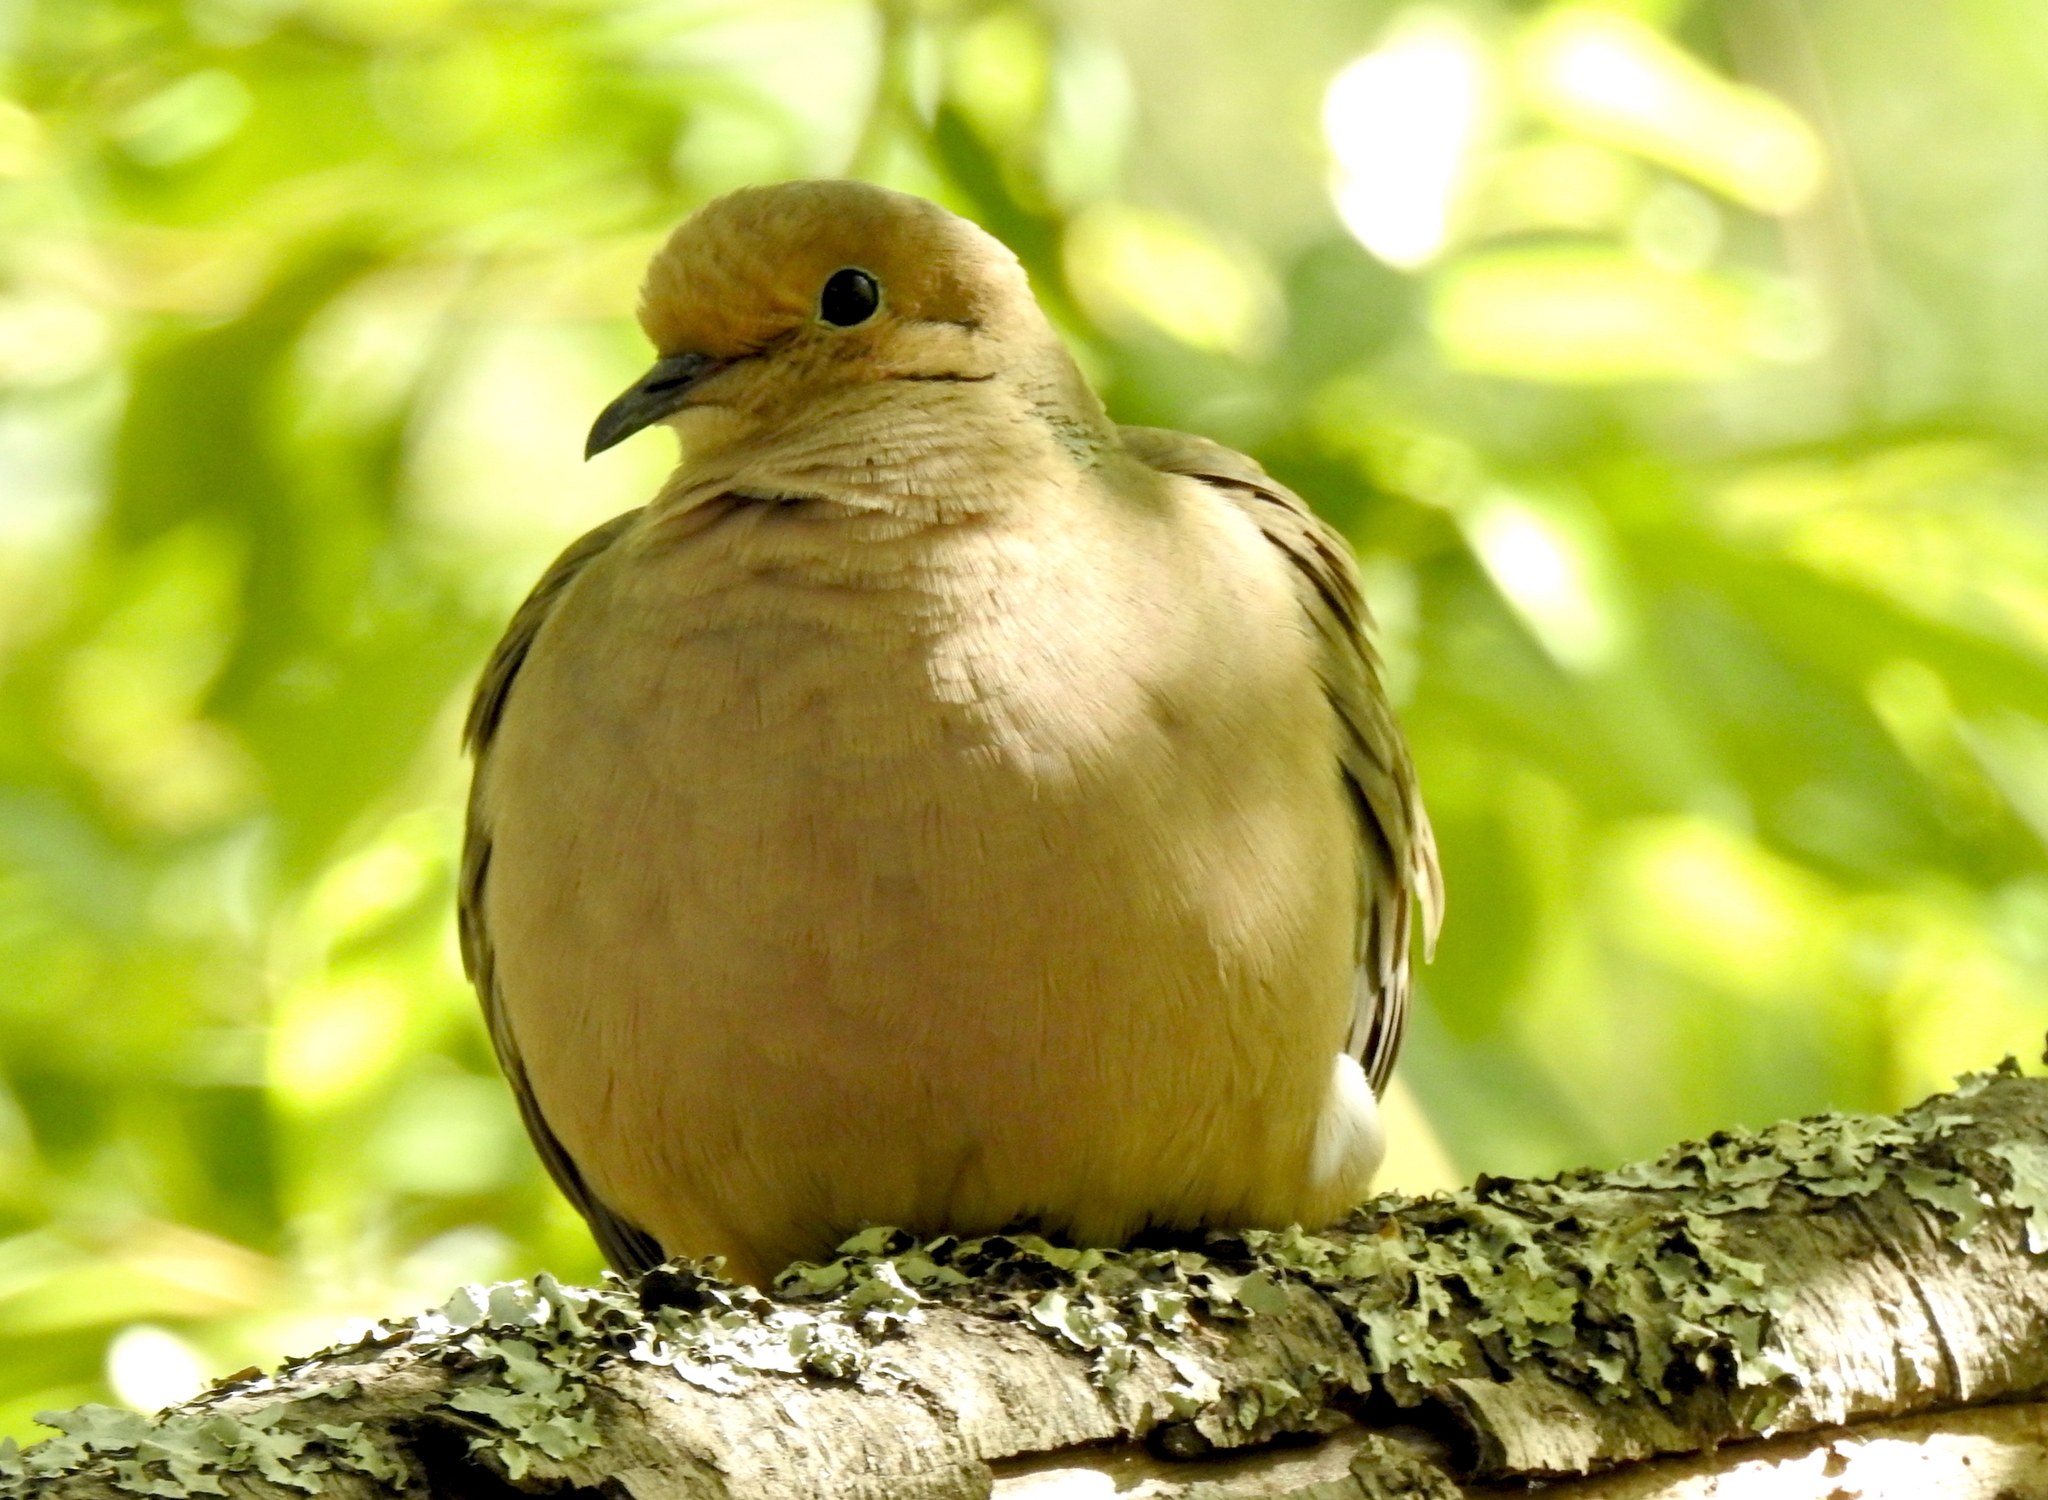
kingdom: Animalia
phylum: Chordata
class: Aves
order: Columbiformes
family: Columbidae
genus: Zenaida
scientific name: Zenaida macroura
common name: Mourning dove
